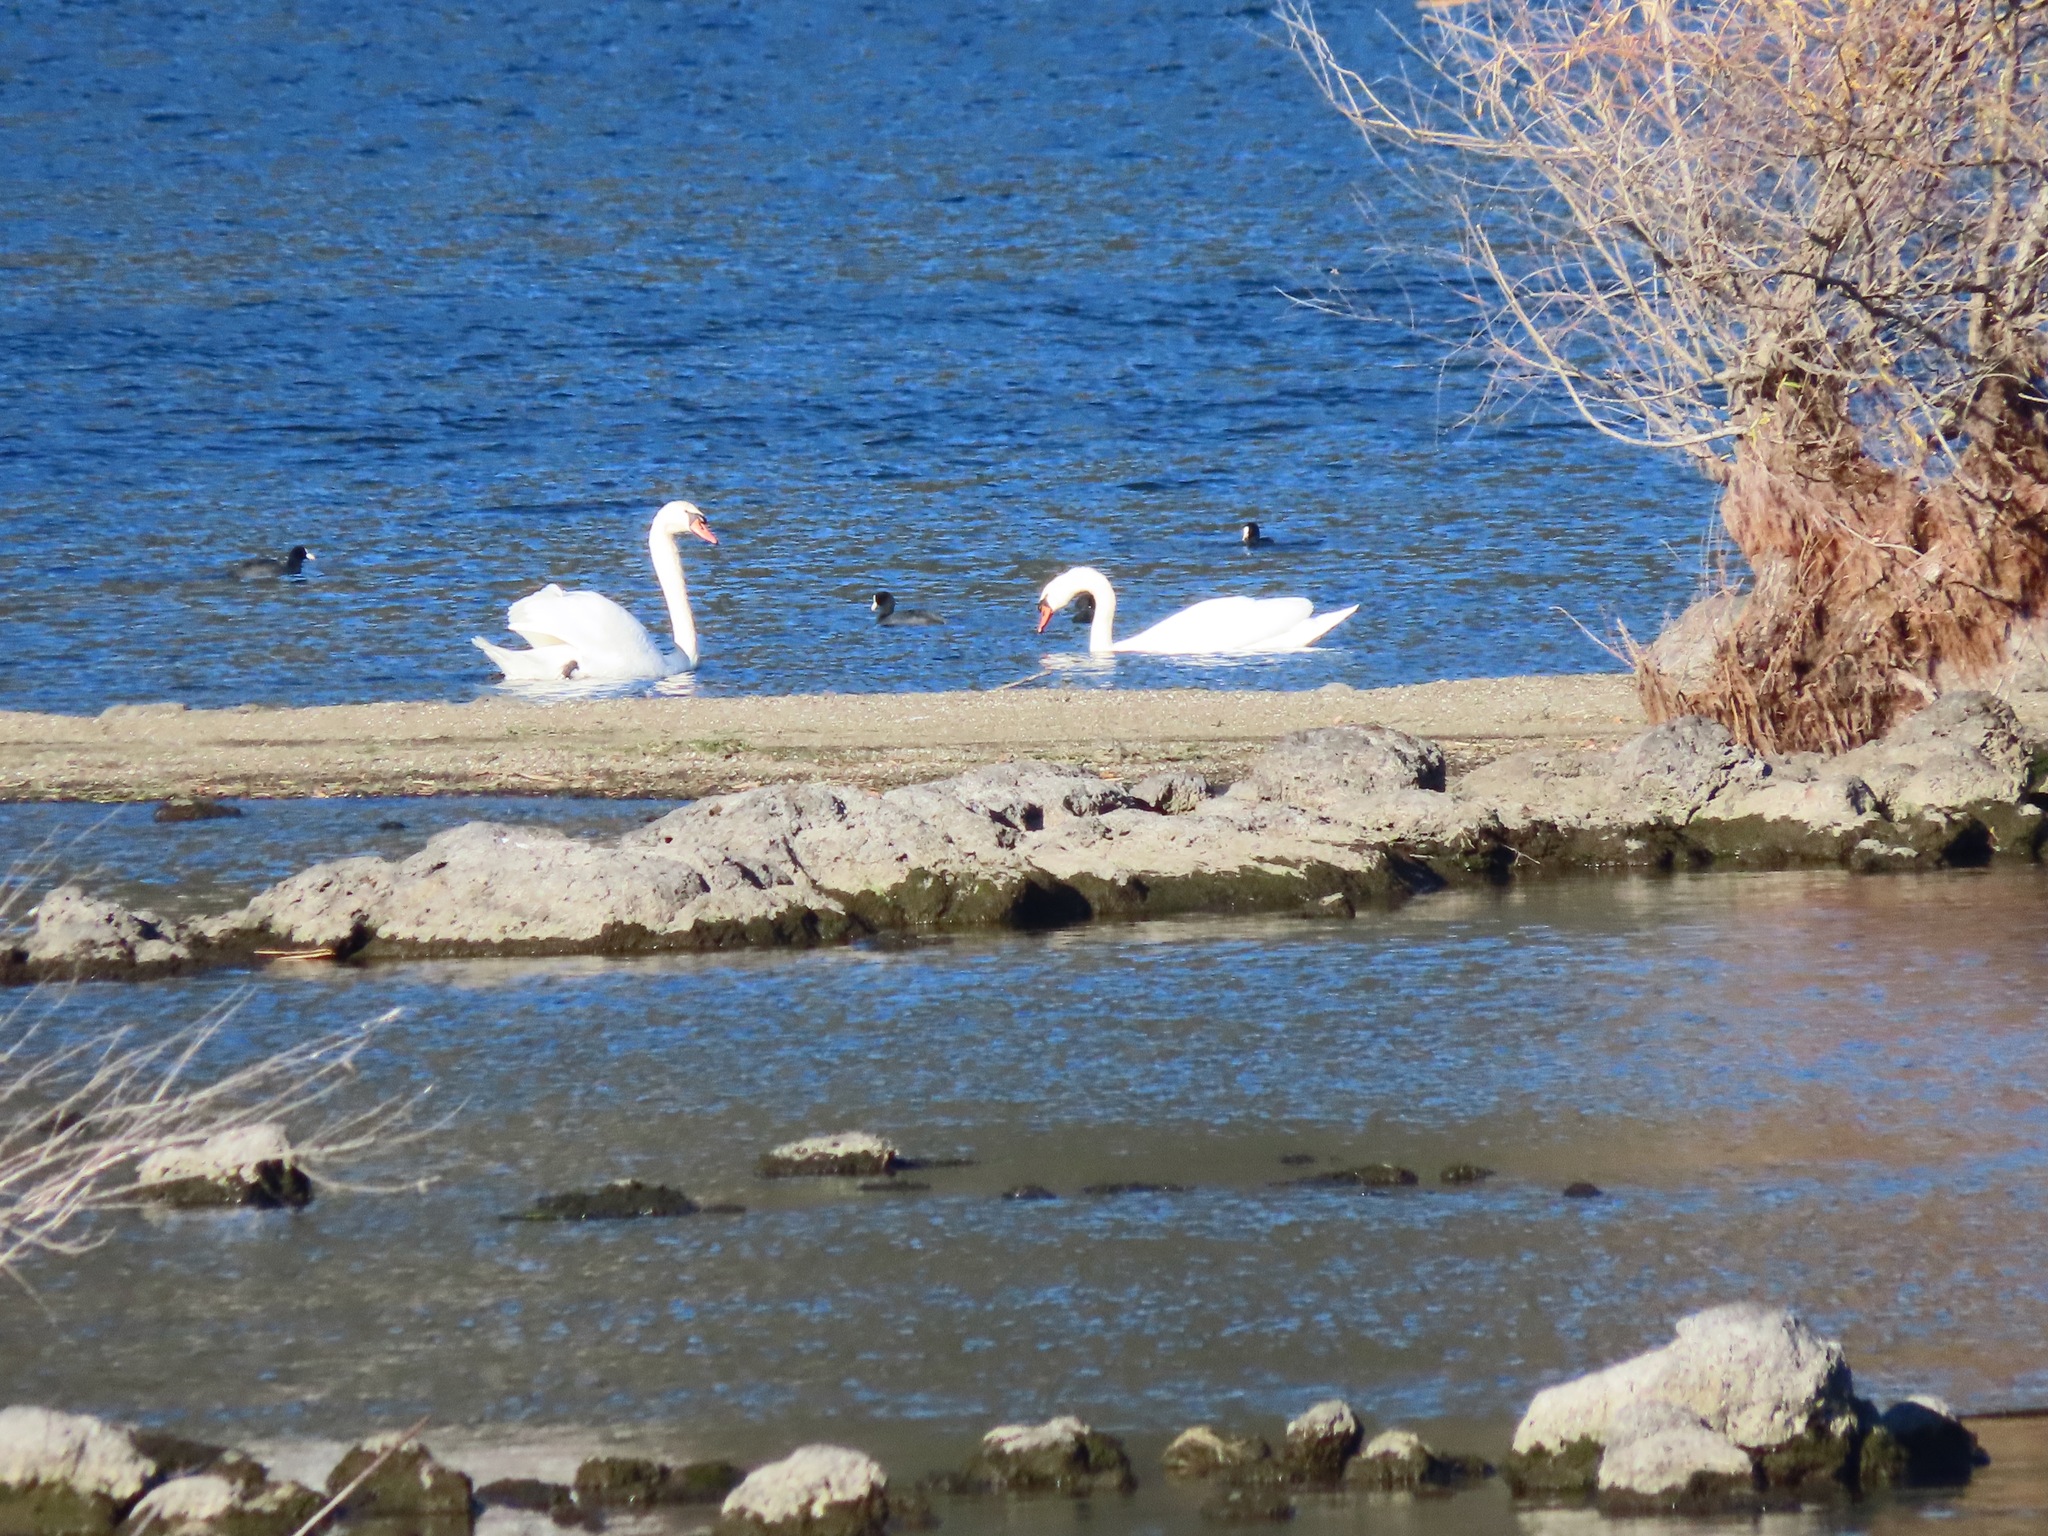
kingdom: Animalia
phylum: Chordata
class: Aves
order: Anseriformes
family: Anatidae
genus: Cygnus
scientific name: Cygnus olor
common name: Mute swan
